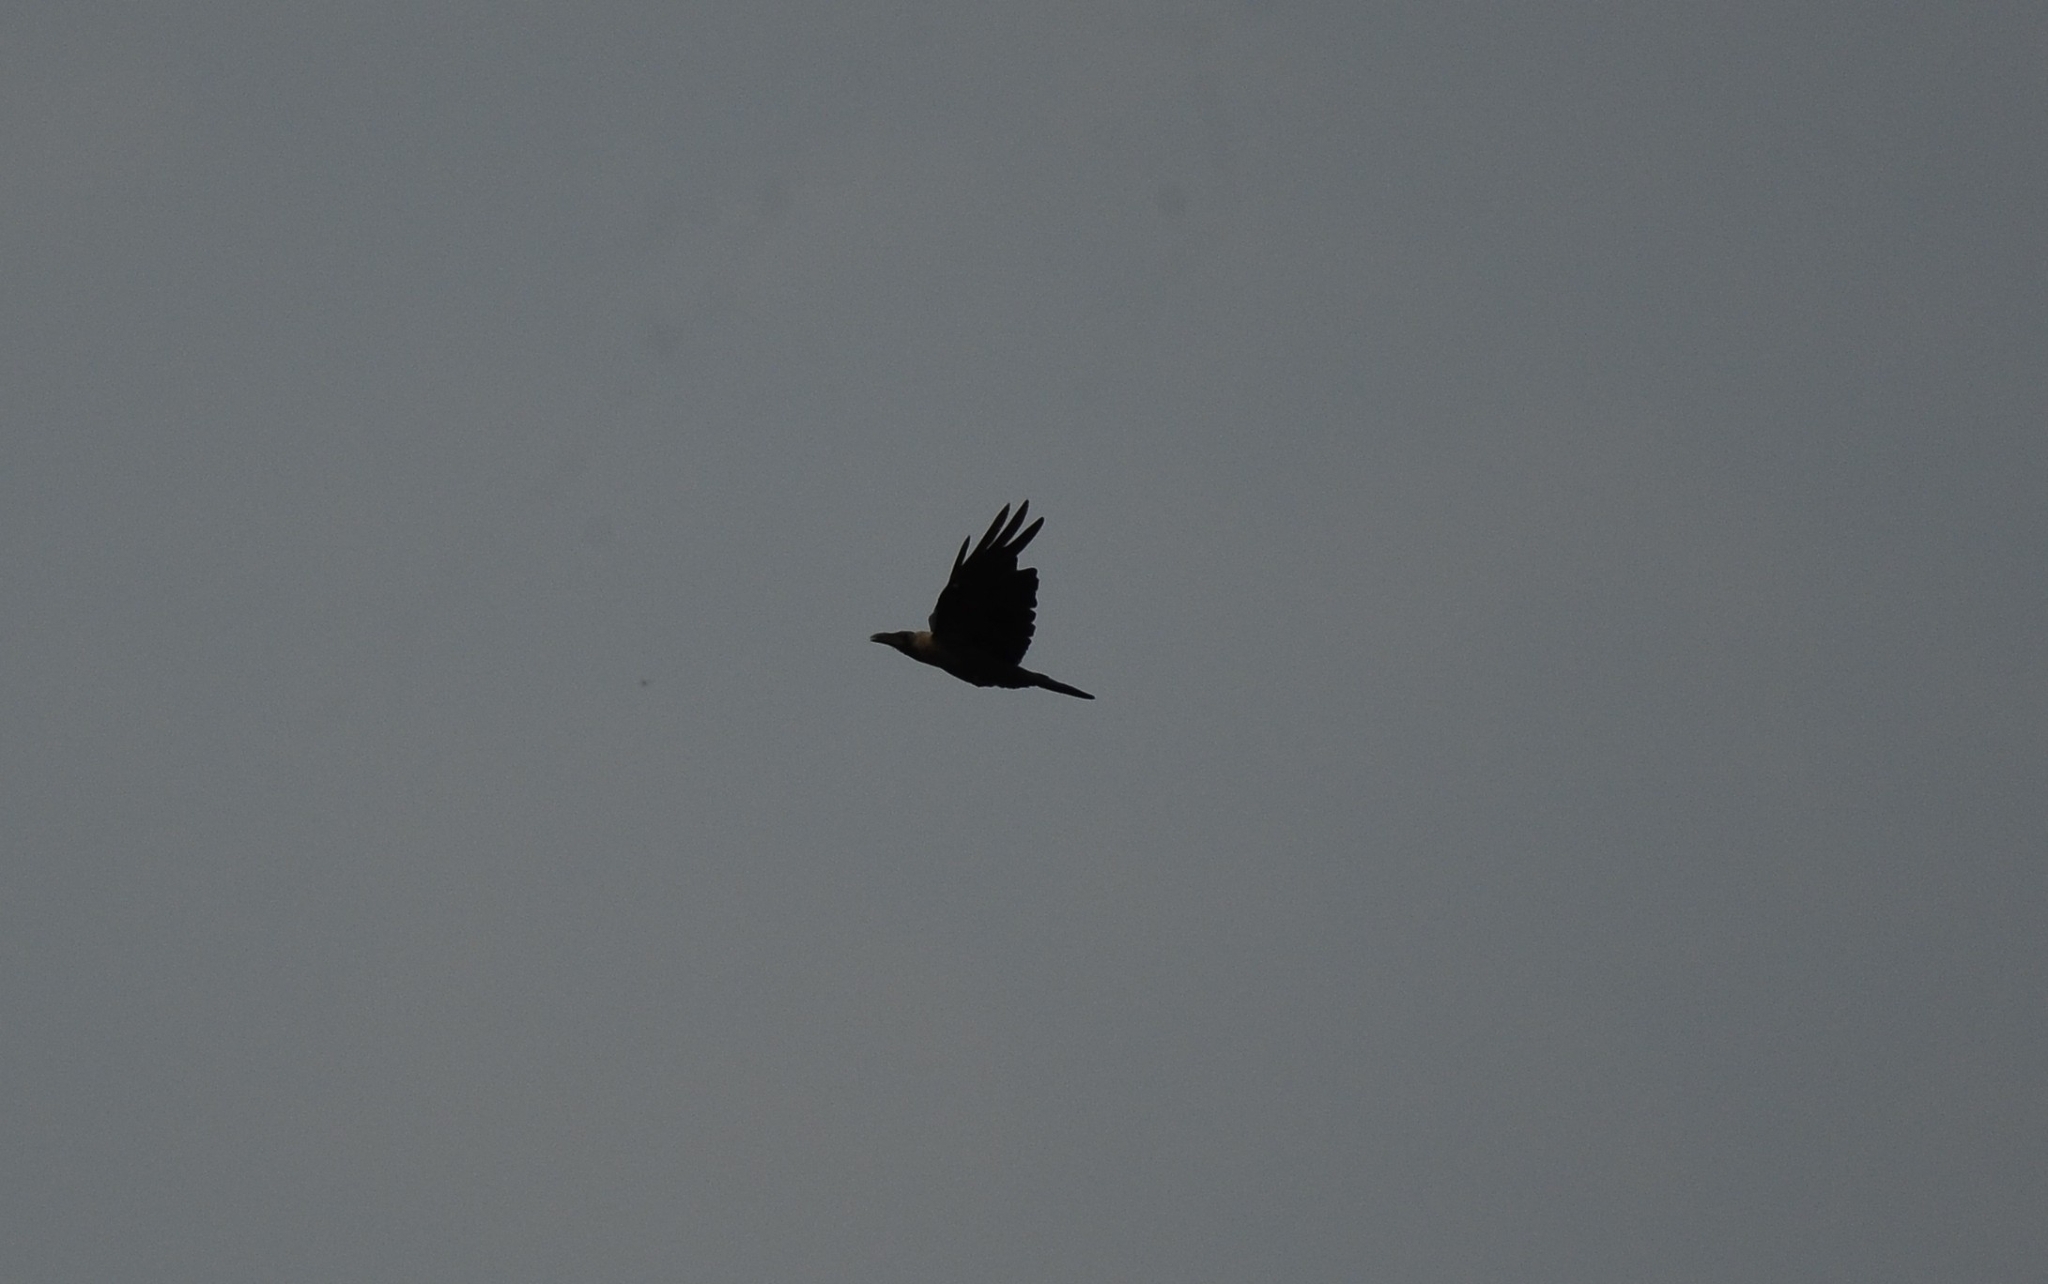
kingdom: Animalia
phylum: Chordata
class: Aves
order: Passeriformes
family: Corvidae
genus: Corvus
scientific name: Corvus splendens
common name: House crow
